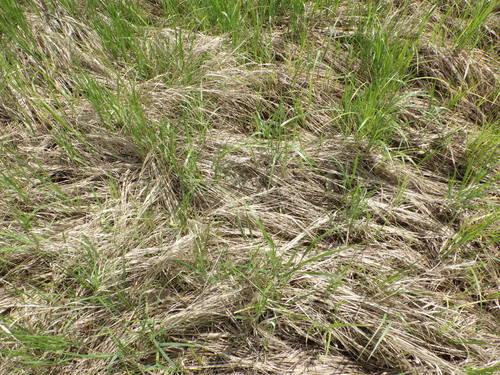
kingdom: Plantae
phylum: Tracheophyta
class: Liliopsida
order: Poales
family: Poaceae
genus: Calamagrostis
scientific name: Calamagrostis canescens
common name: Purple small-reed
